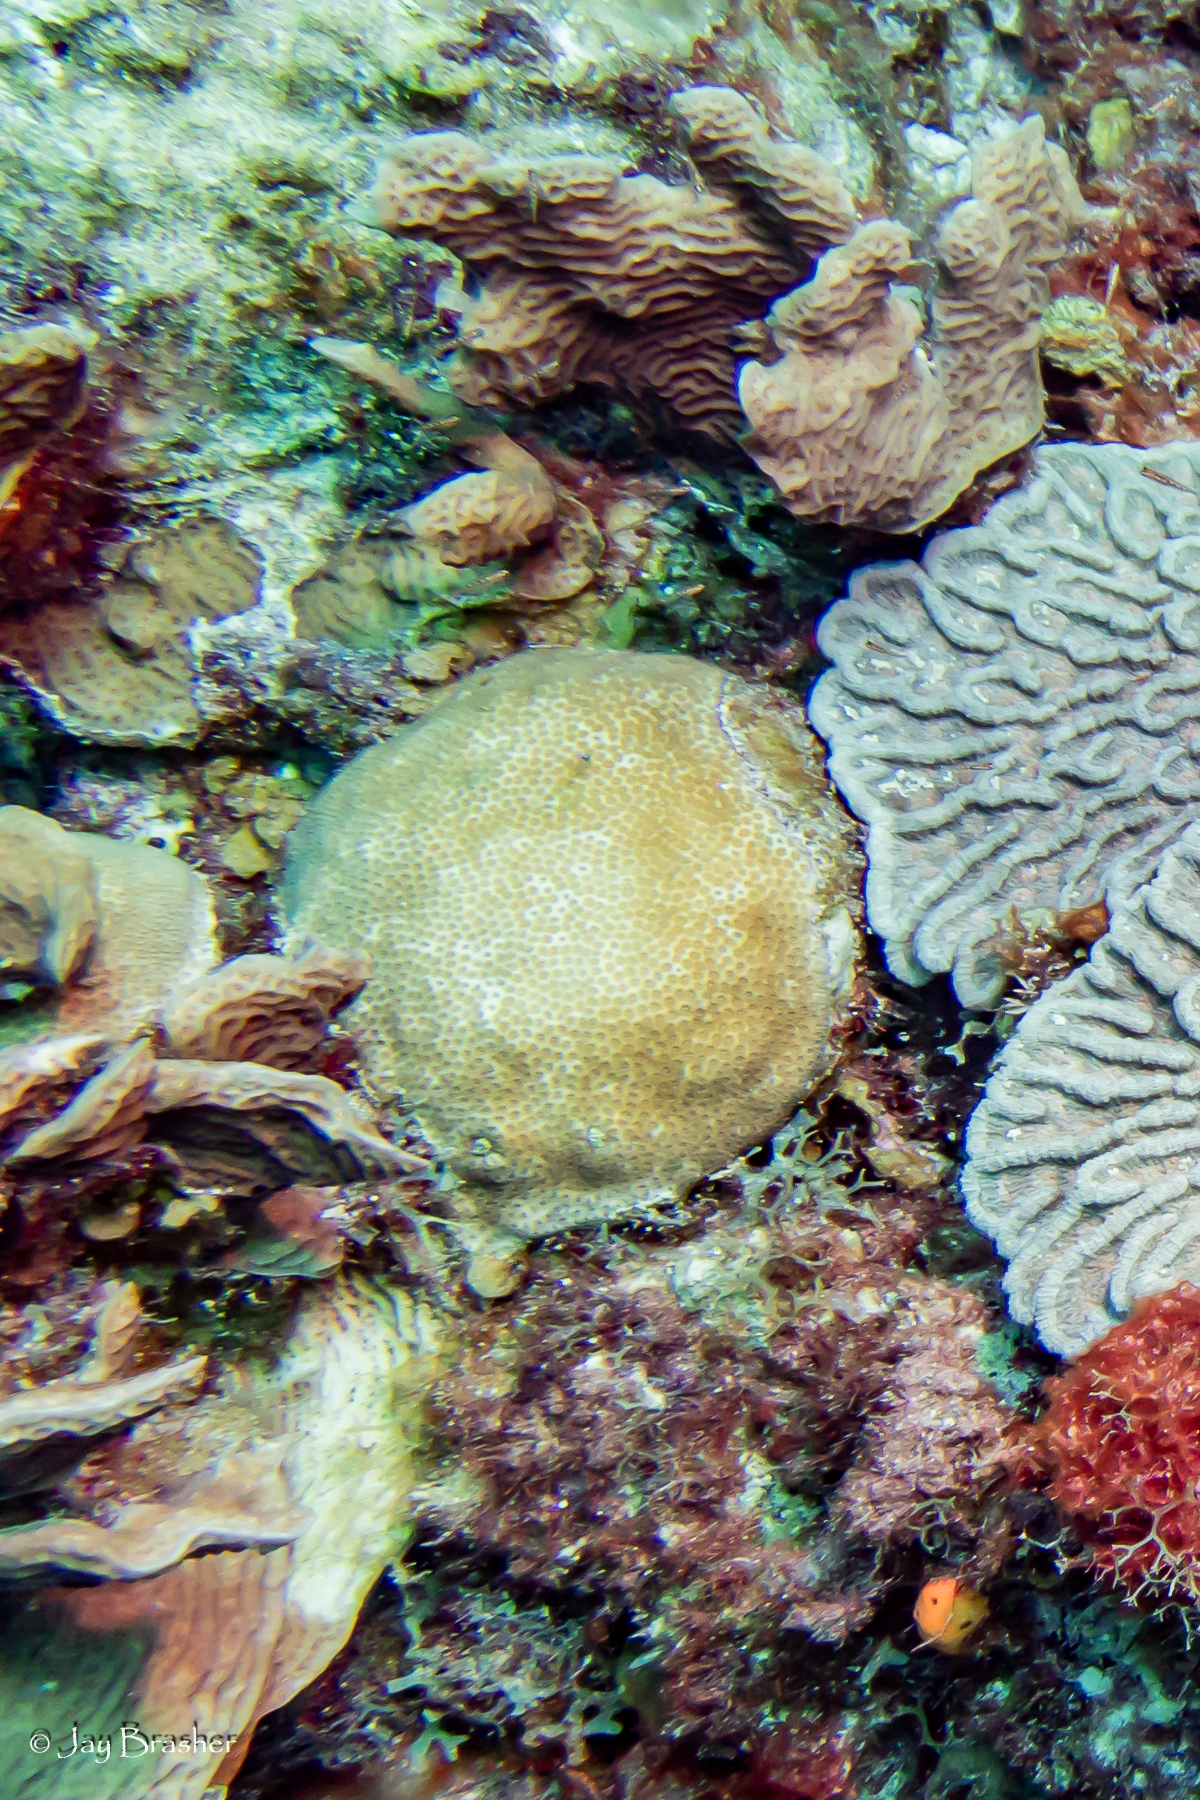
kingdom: Animalia
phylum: Cnidaria
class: Anthozoa
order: Scleractinia
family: Astrocoeniidae
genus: Stephanocoenia
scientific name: Stephanocoenia intersepta
